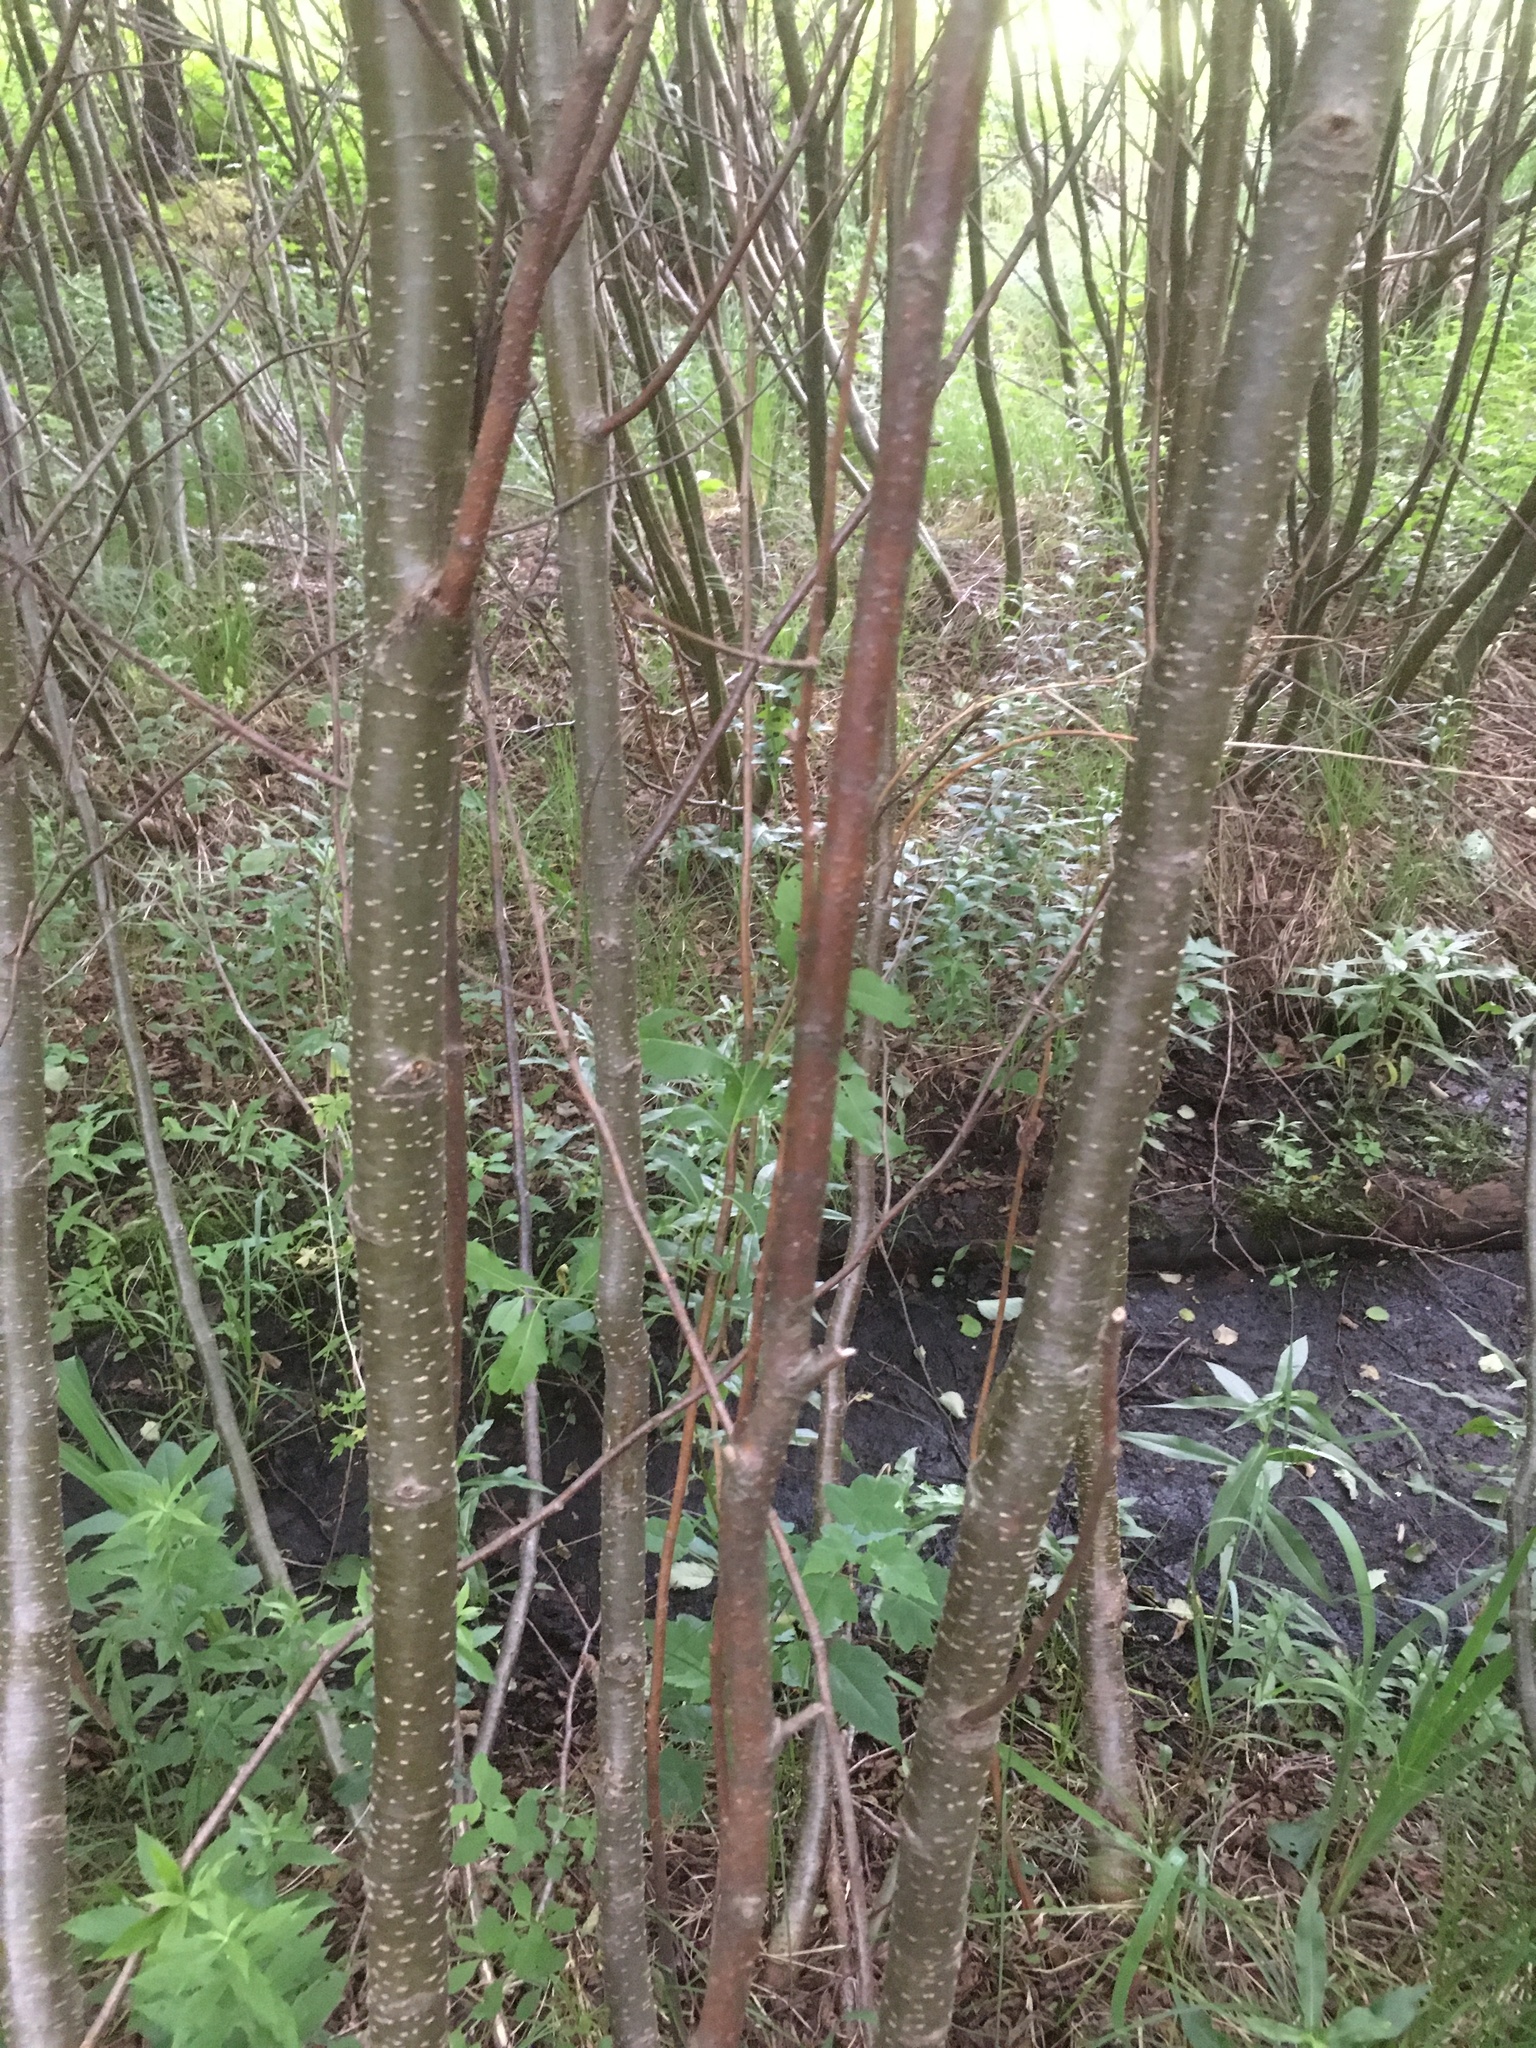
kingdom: Plantae
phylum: Tracheophyta
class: Magnoliopsida
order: Fagales
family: Betulaceae
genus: Alnus
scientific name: Alnus incana
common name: Grey alder
